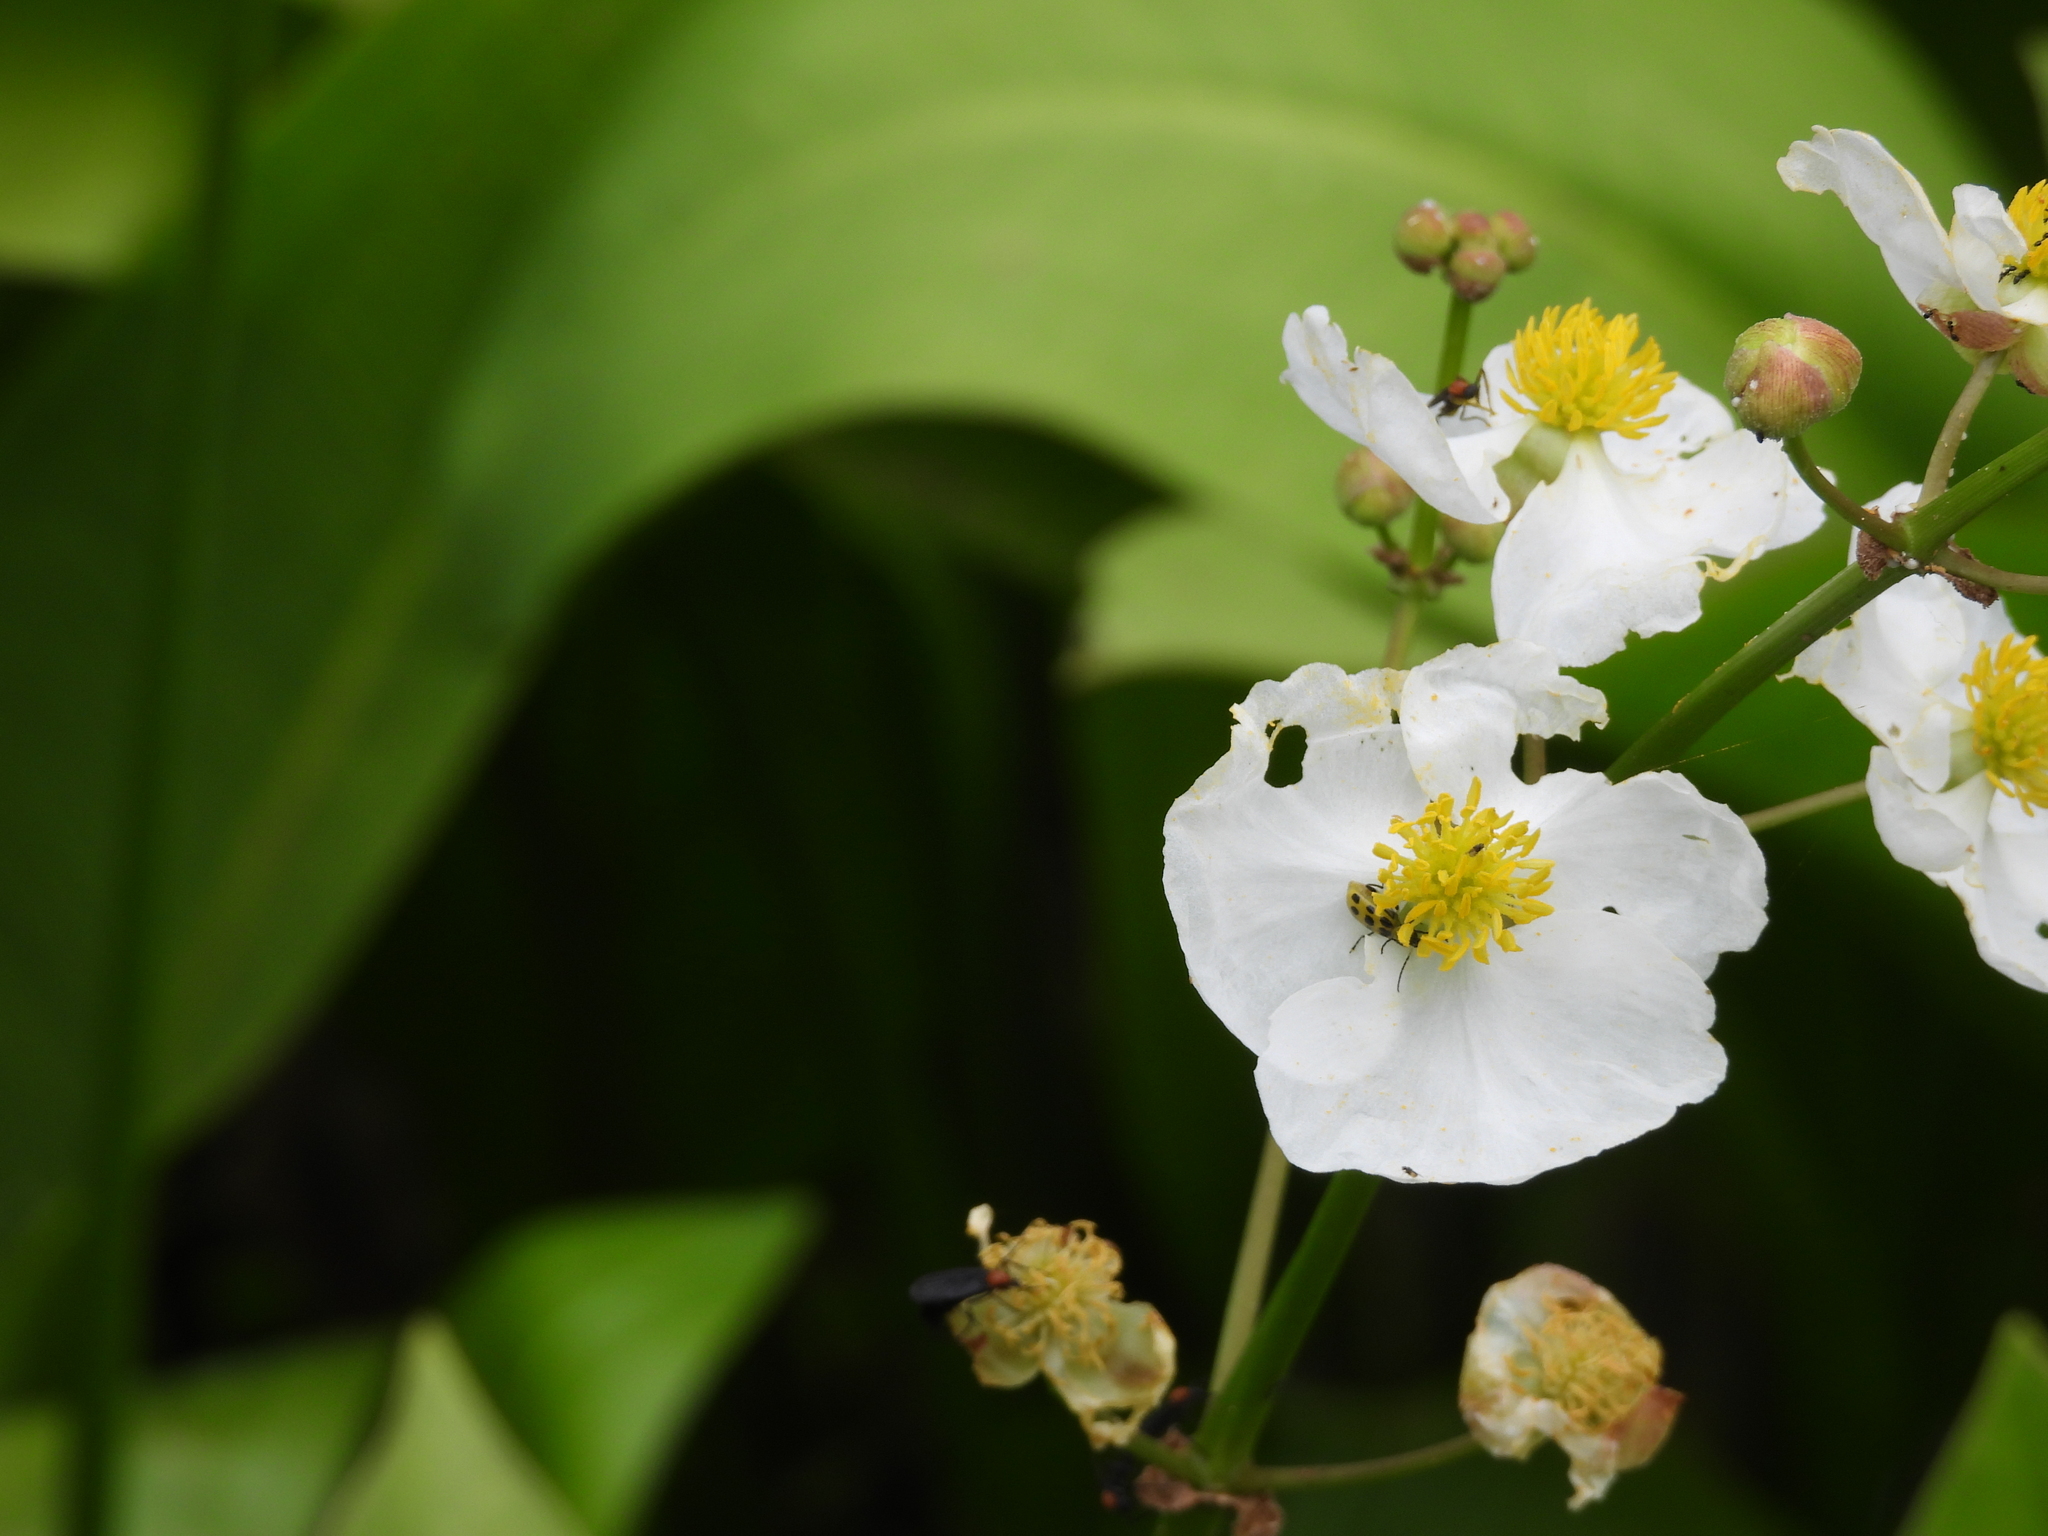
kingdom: Animalia
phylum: Arthropoda
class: Insecta
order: Coleoptera
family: Chrysomelidae
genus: Diabrotica
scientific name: Diabrotica undecimpunctata
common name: Spotted cucumber beetle
